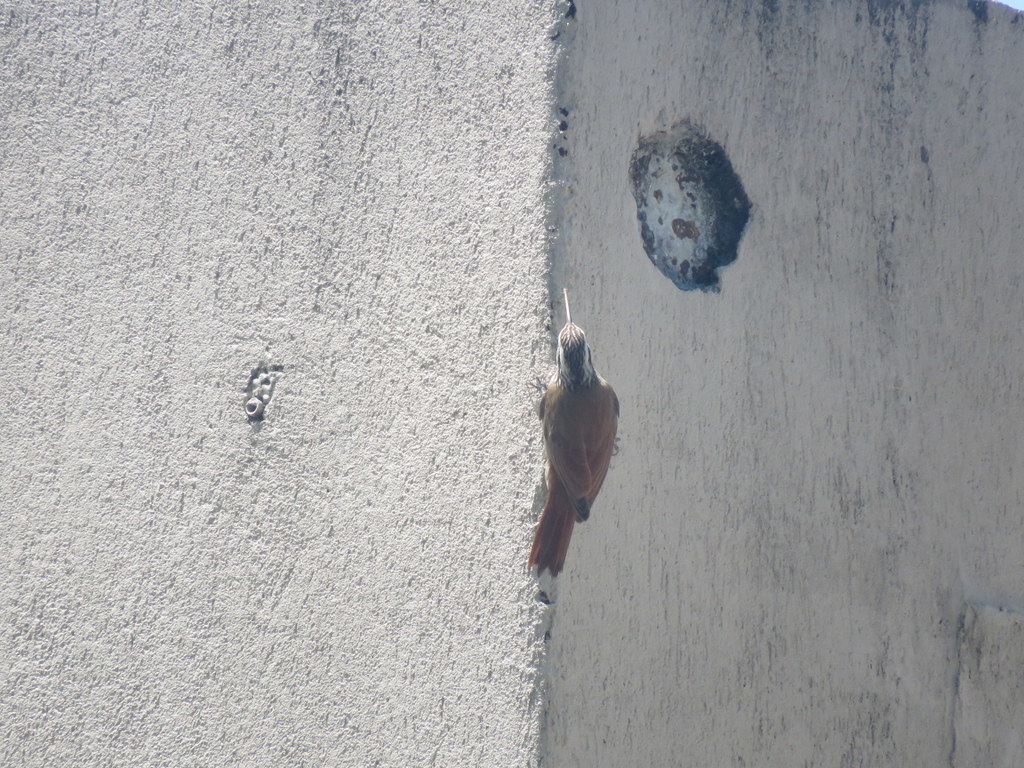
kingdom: Animalia
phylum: Chordata
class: Aves
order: Passeriformes
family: Furnariidae
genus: Lepidocolaptes
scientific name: Lepidocolaptes angustirostris
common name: Narrow-billed woodcreeper
